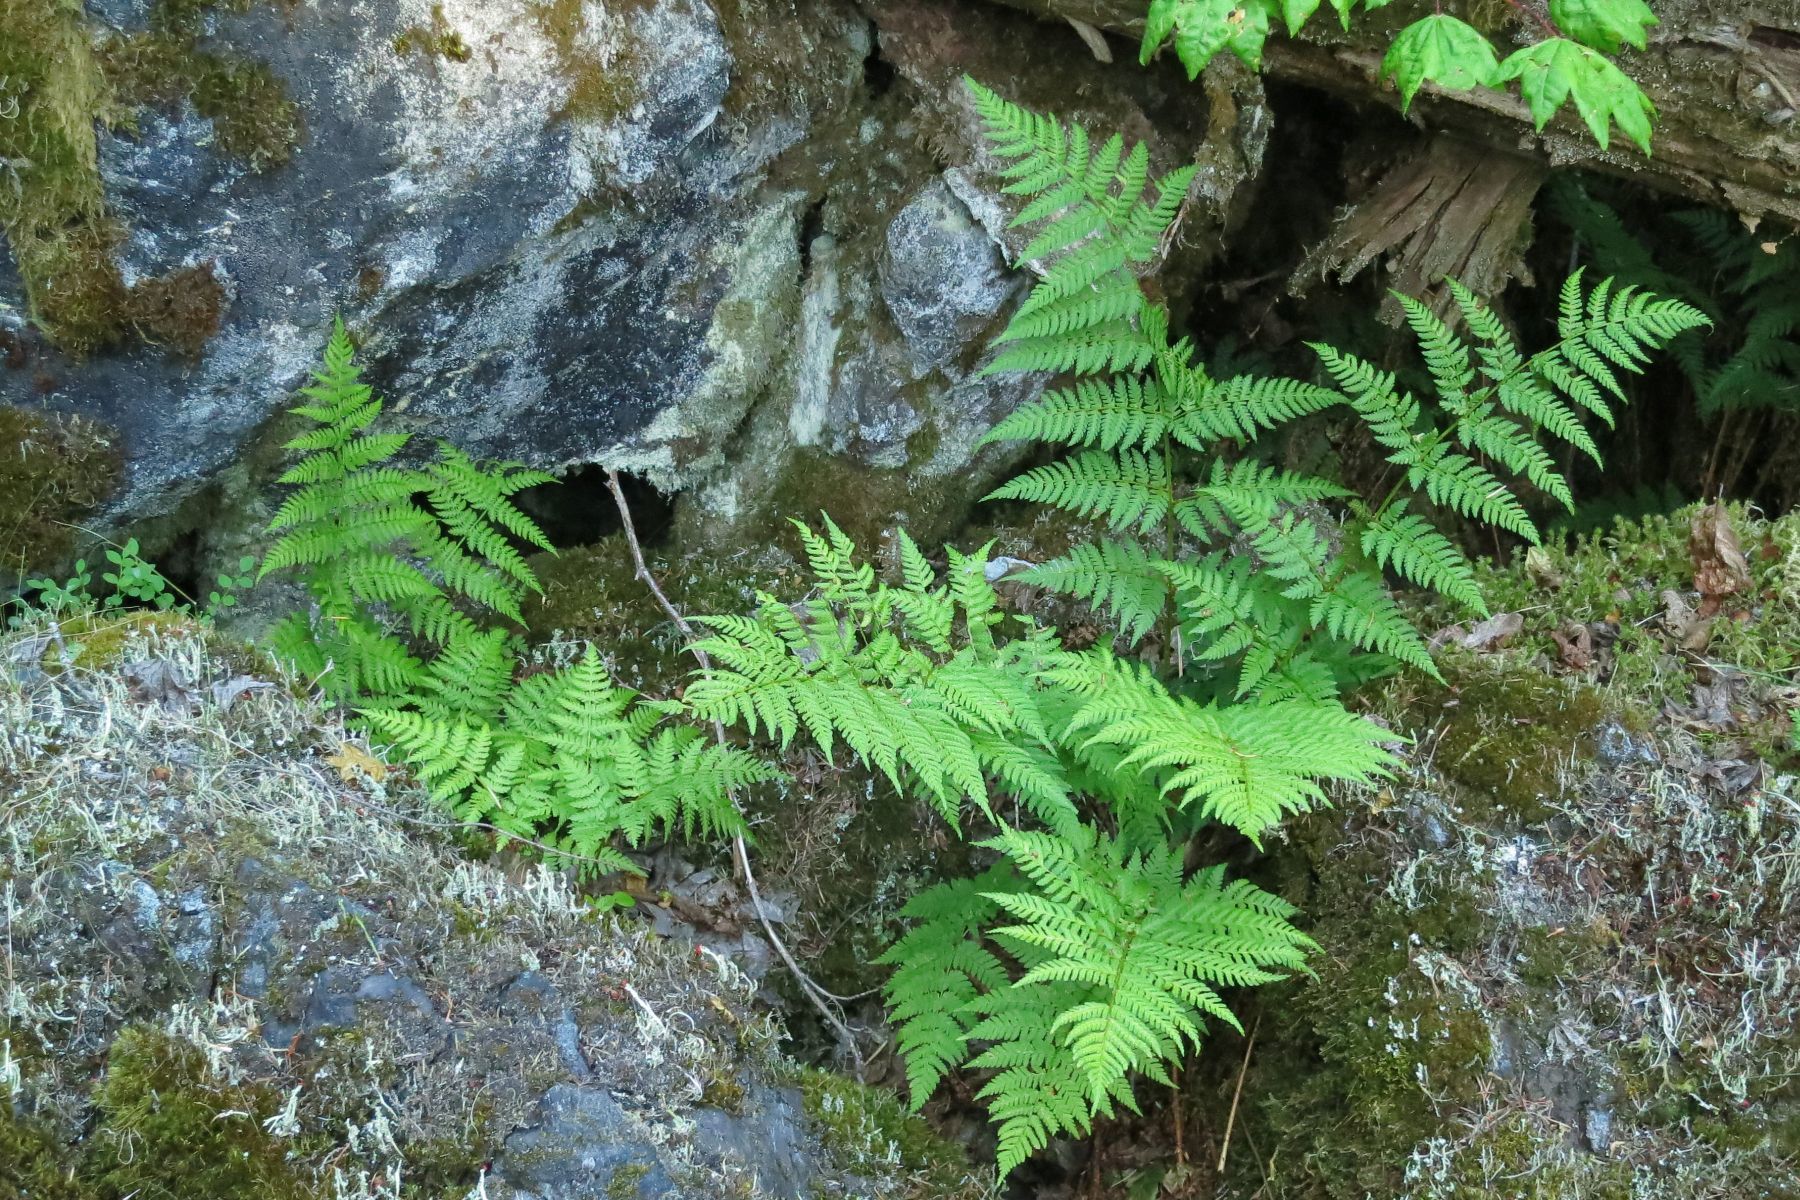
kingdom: Plantae
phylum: Tracheophyta
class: Polypodiopsida
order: Polypodiales
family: Dryopteridaceae
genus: Dryopteris
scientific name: Dryopteris expansa
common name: Northern buckler fern
